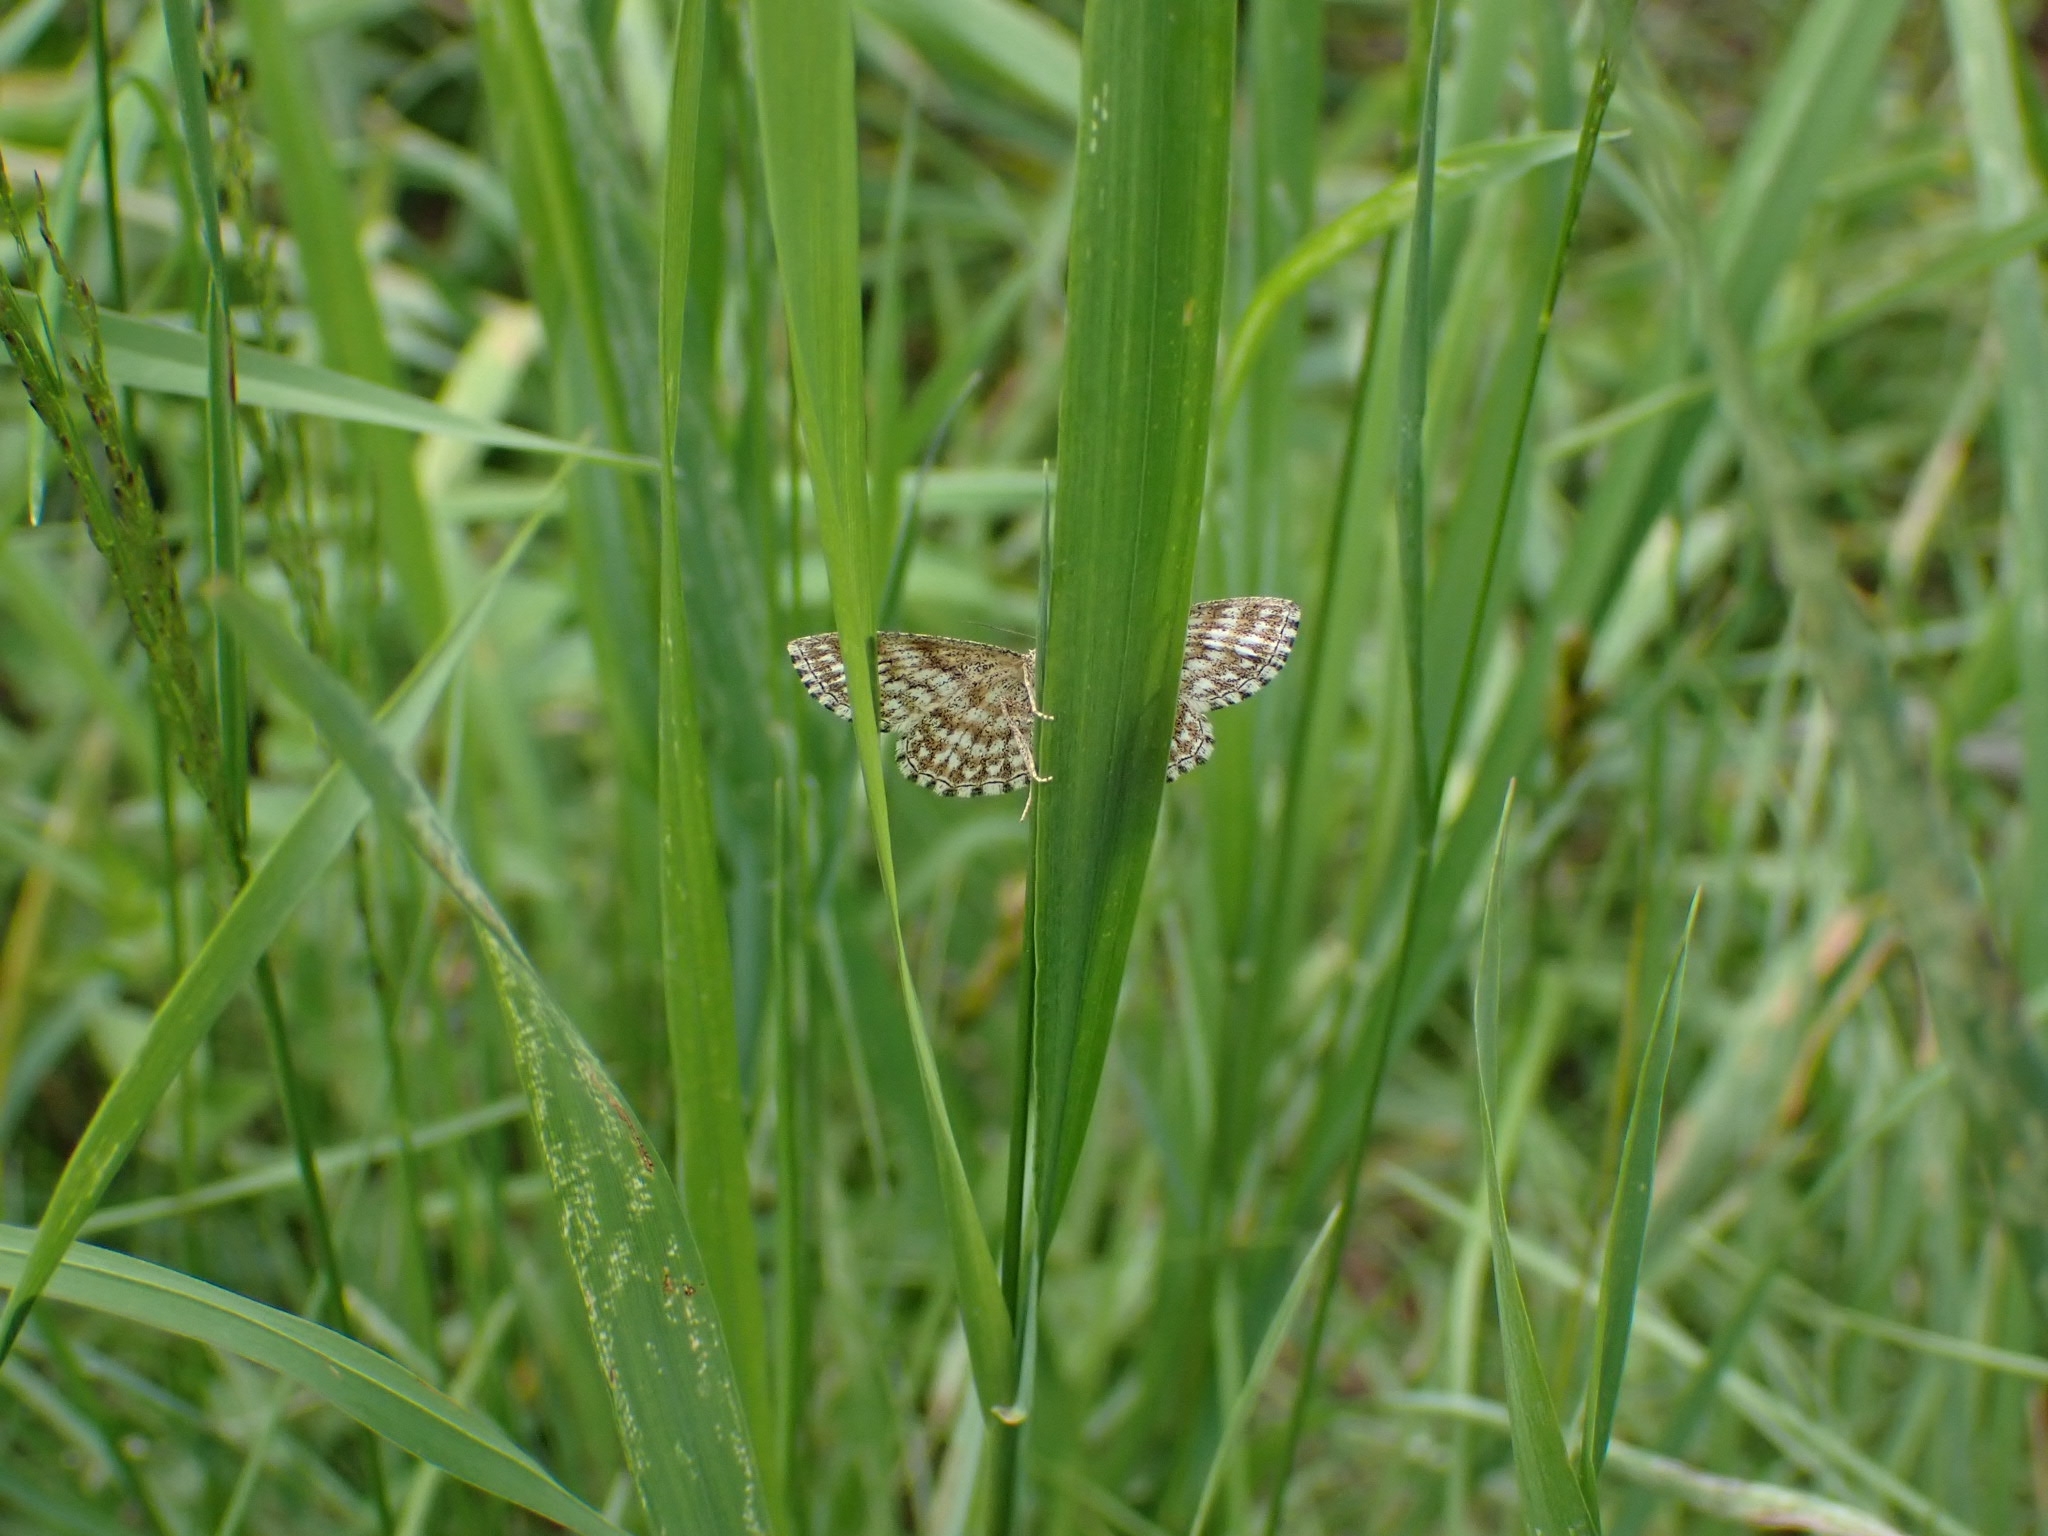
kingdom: Animalia
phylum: Arthropoda
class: Insecta
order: Lepidoptera
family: Geometridae
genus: Scopula
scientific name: Scopula immorata
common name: Lewes wave
